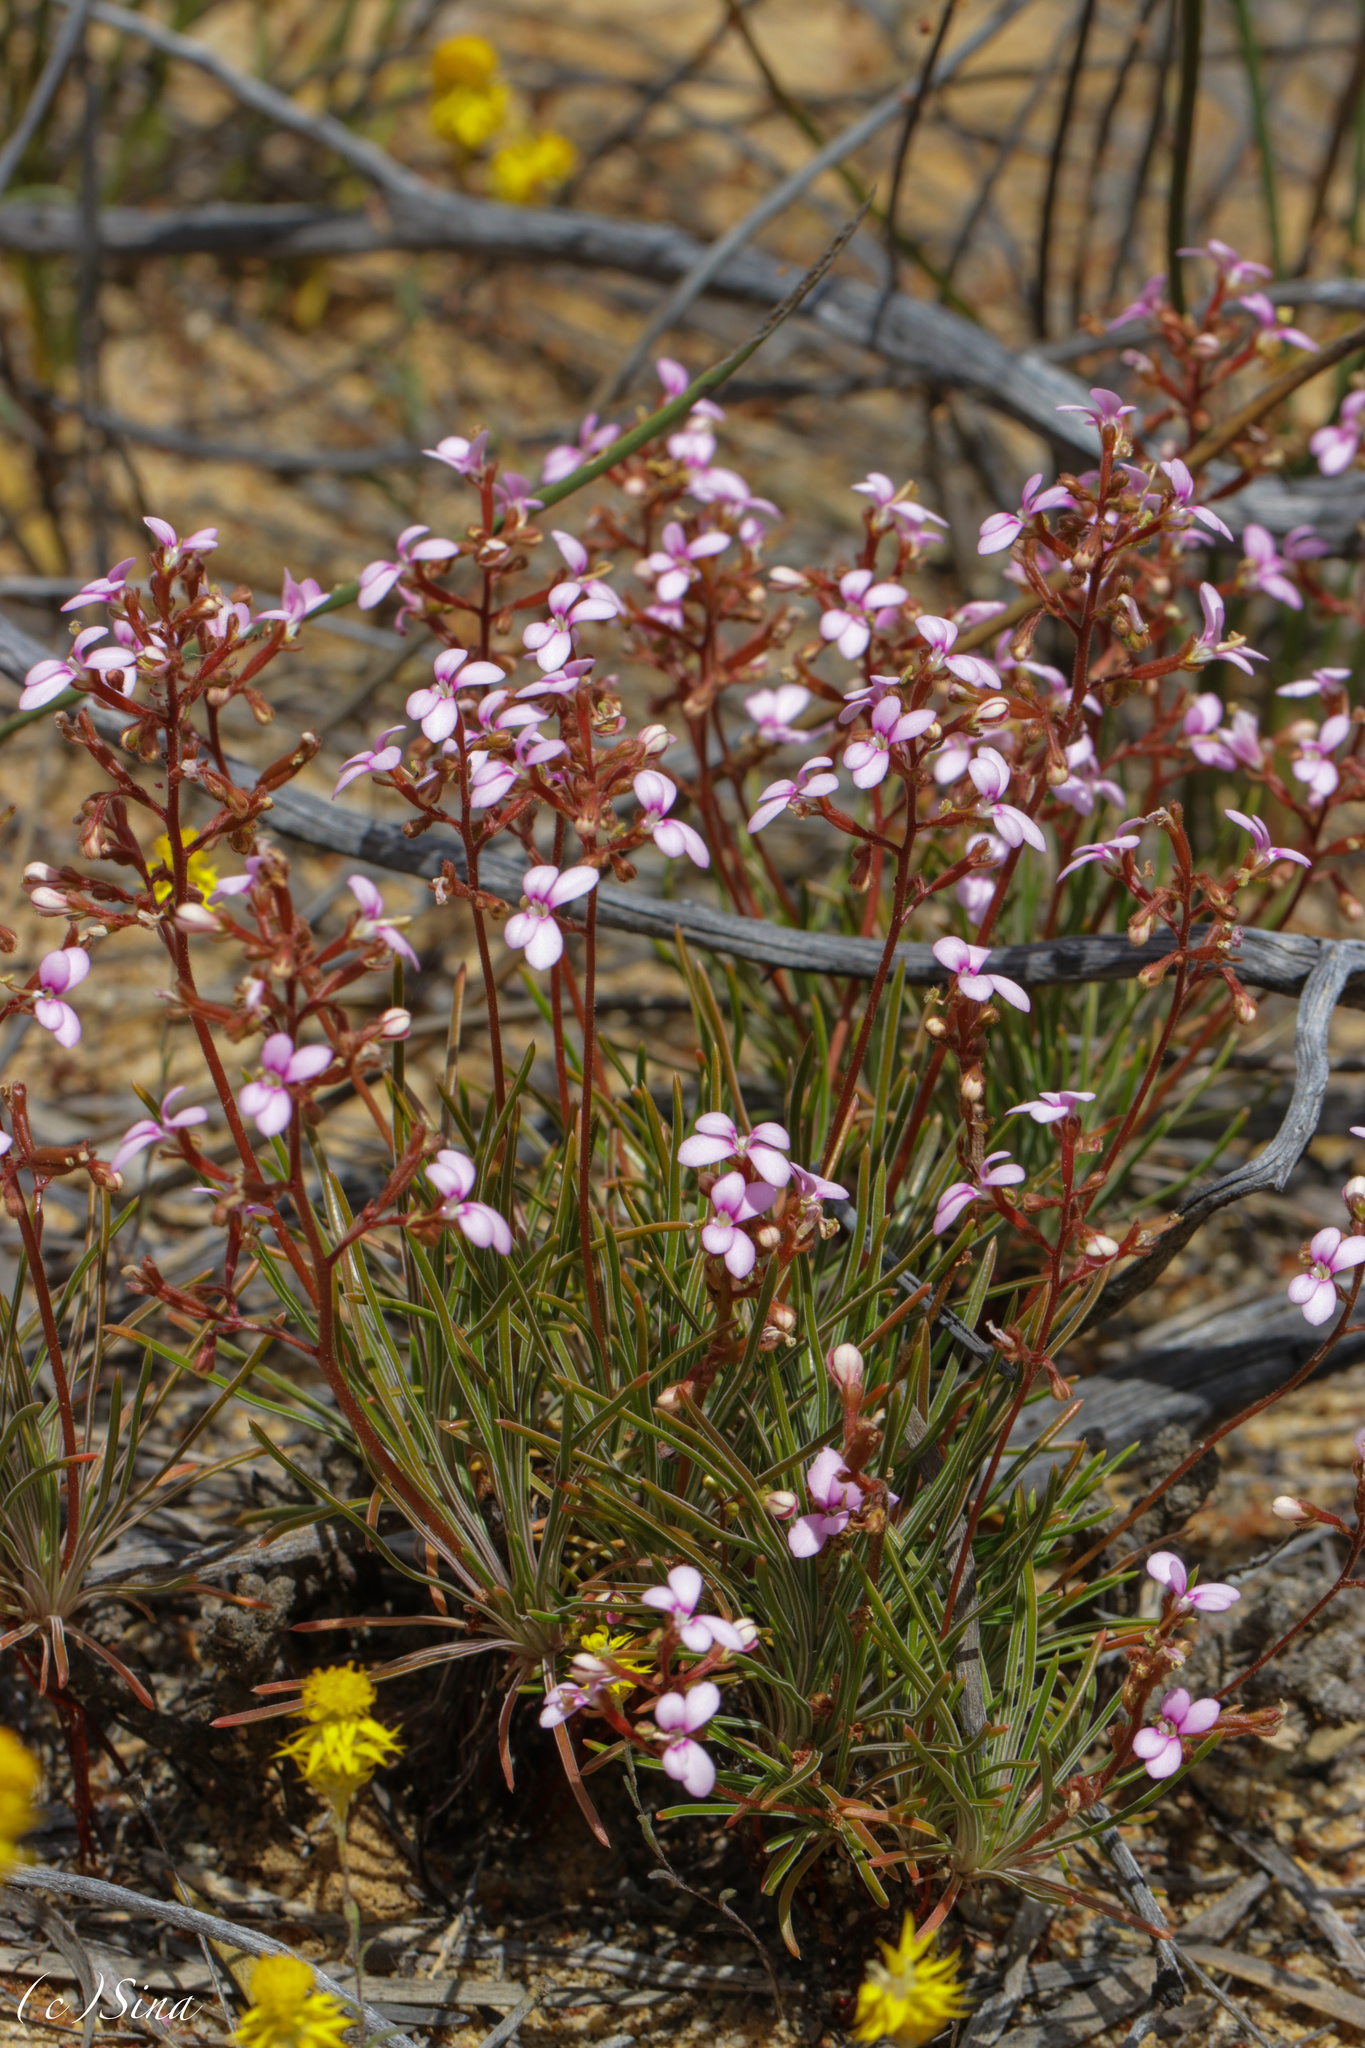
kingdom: Plantae
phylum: Tracheophyta
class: Magnoliopsida
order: Asterales
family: Stylidiaceae
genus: Stylidium
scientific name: Stylidium leptophyllum
